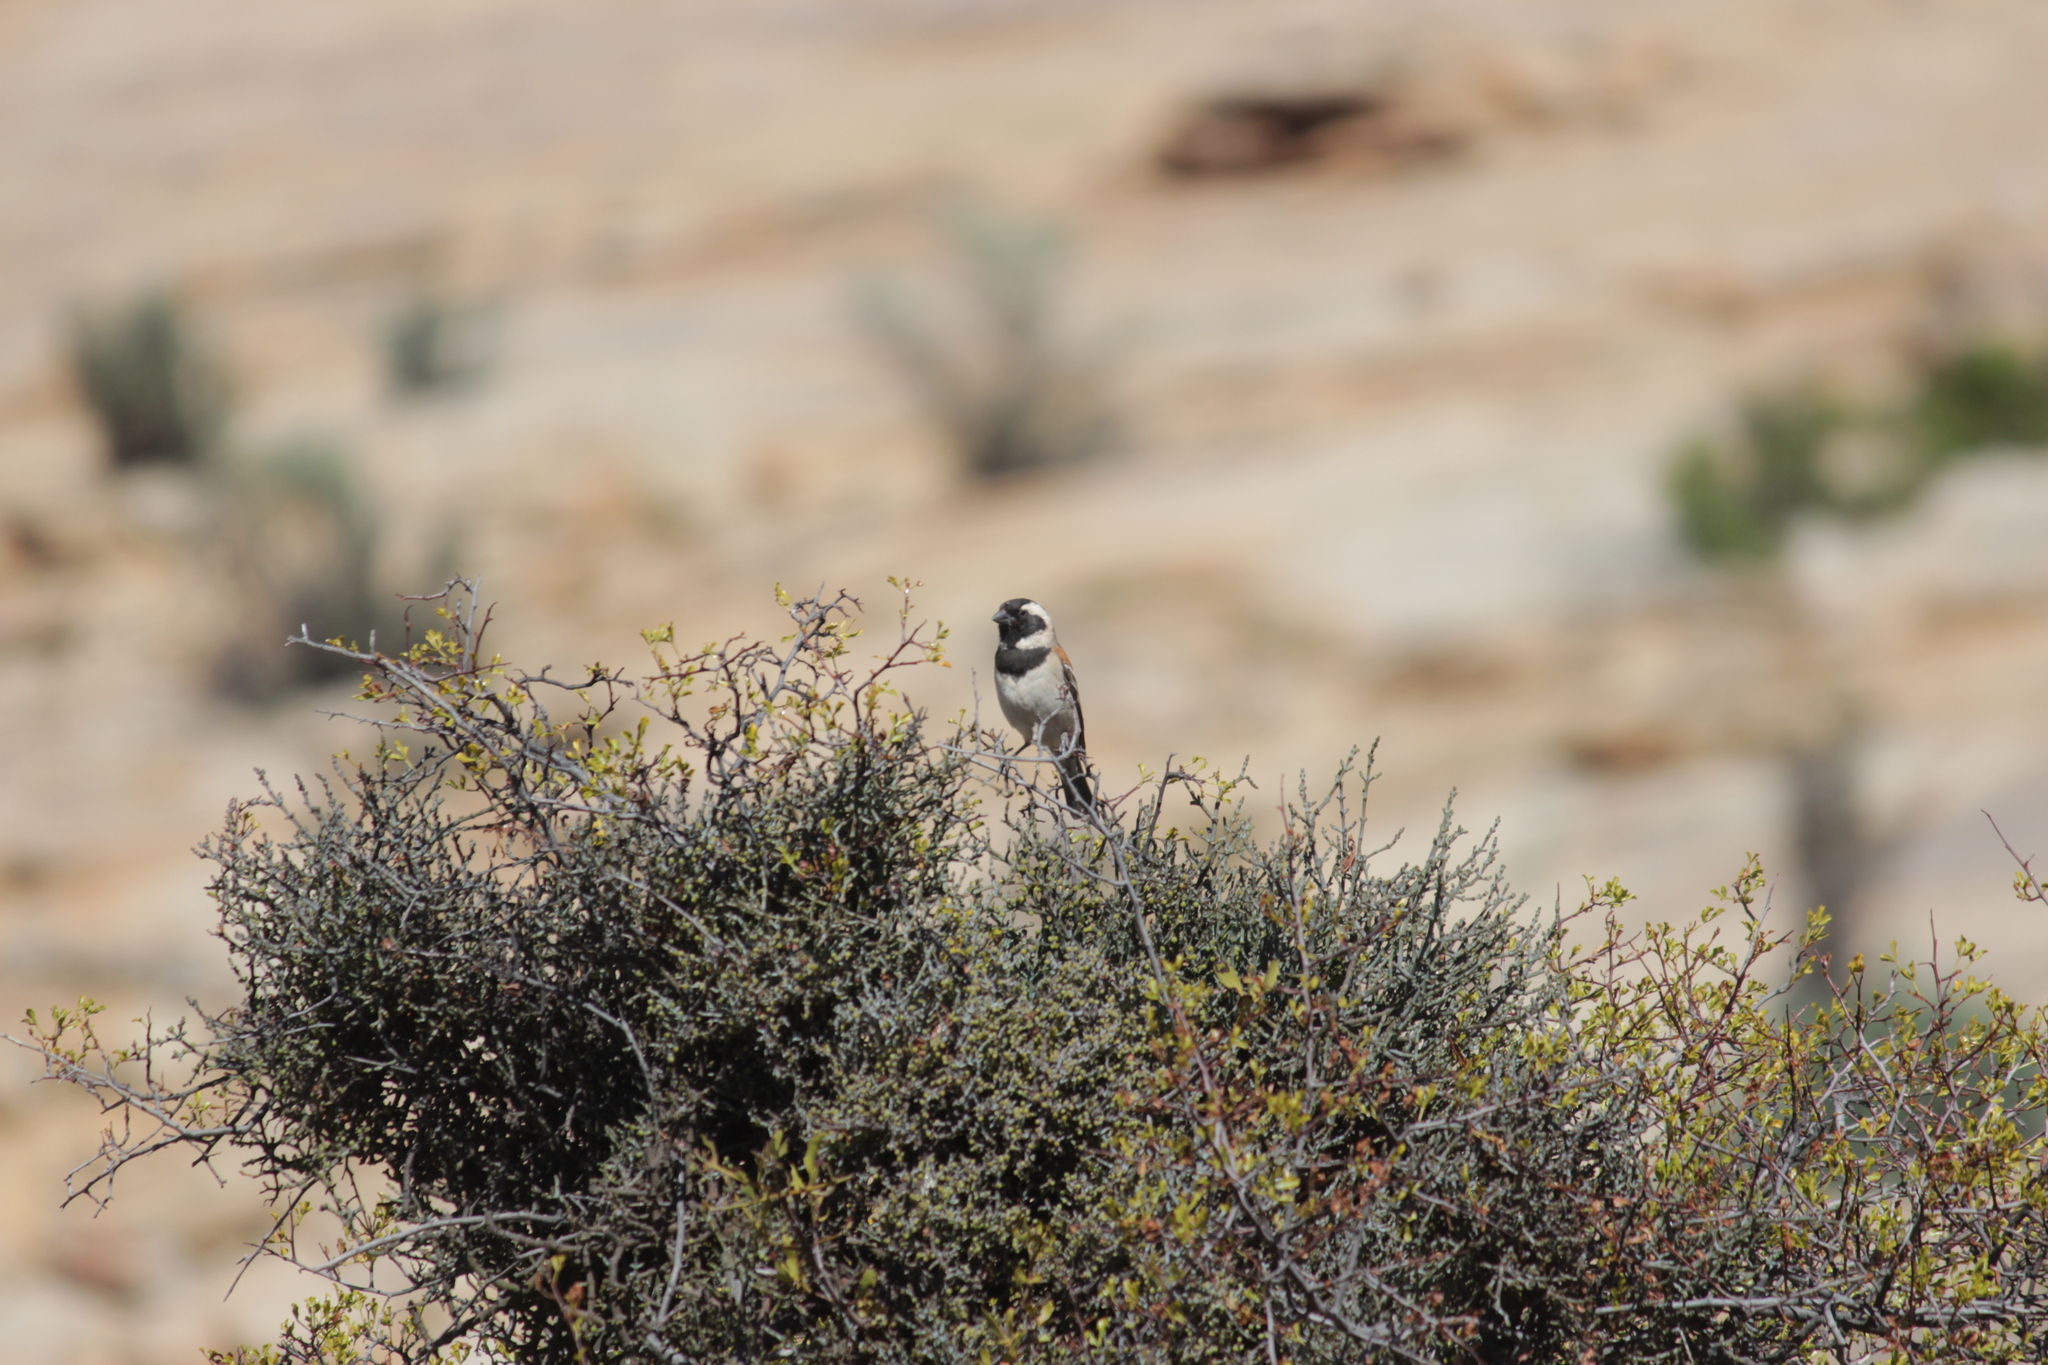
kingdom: Animalia
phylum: Chordata
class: Aves
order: Passeriformes
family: Passeridae
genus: Passer
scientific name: Passer melanurus
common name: Cape sparrow
